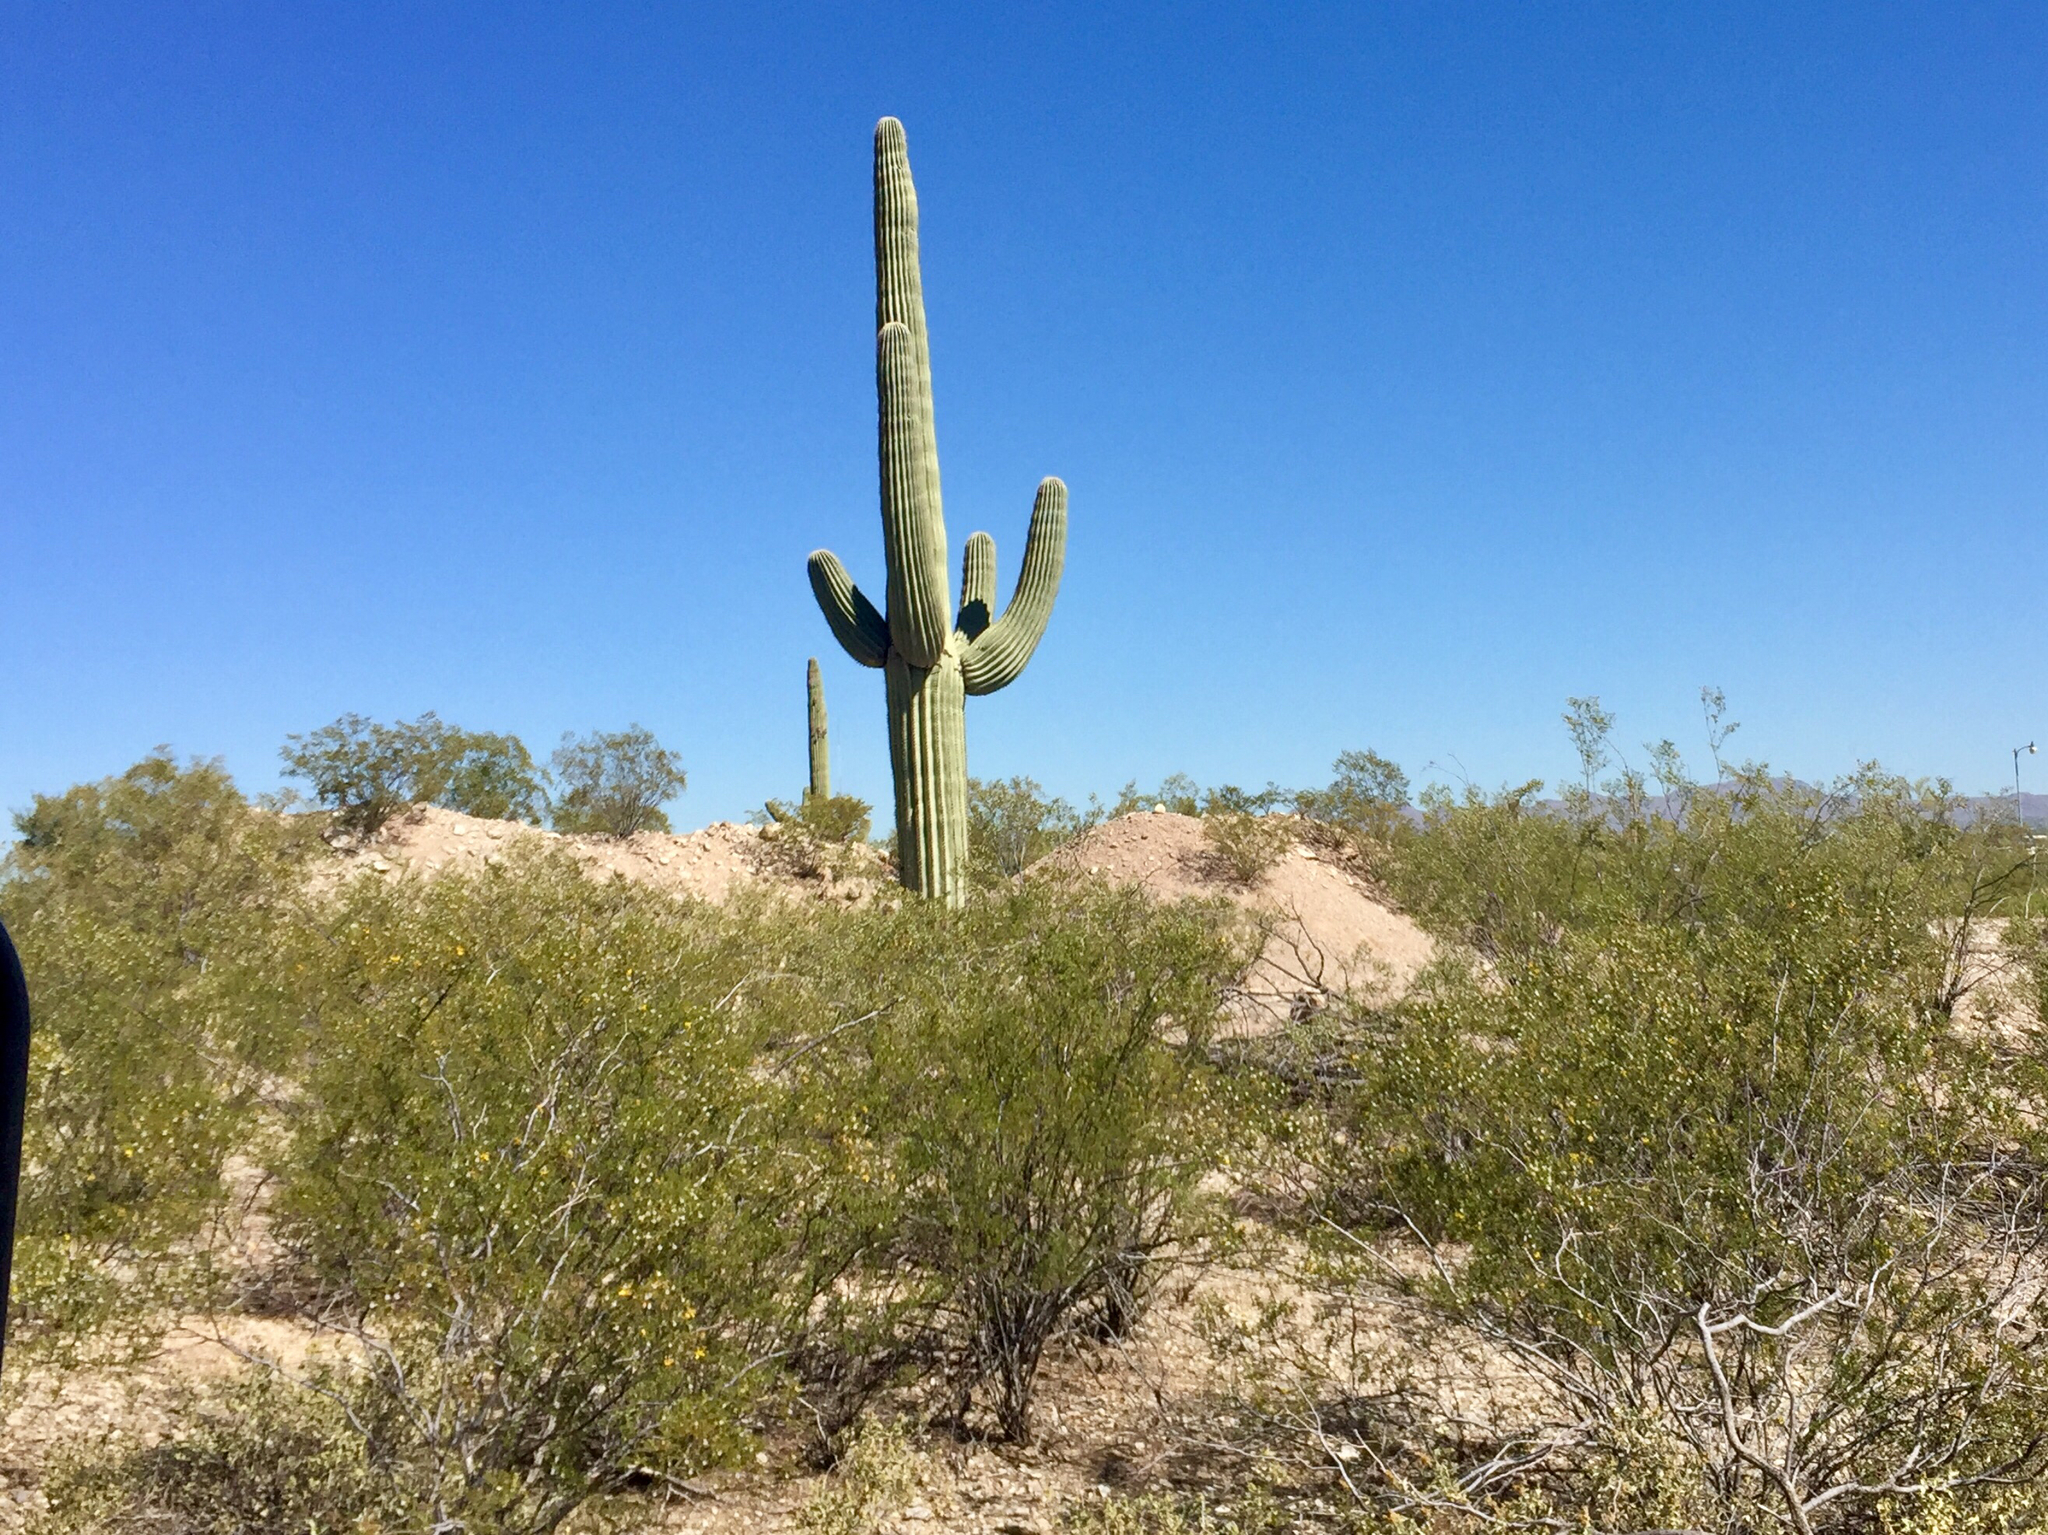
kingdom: Plantae
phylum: Tracheophyta
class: Magnoliopsida
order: Zygophyllales
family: Zygophyllaceae
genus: Larrea
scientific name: Larrea tridentata
